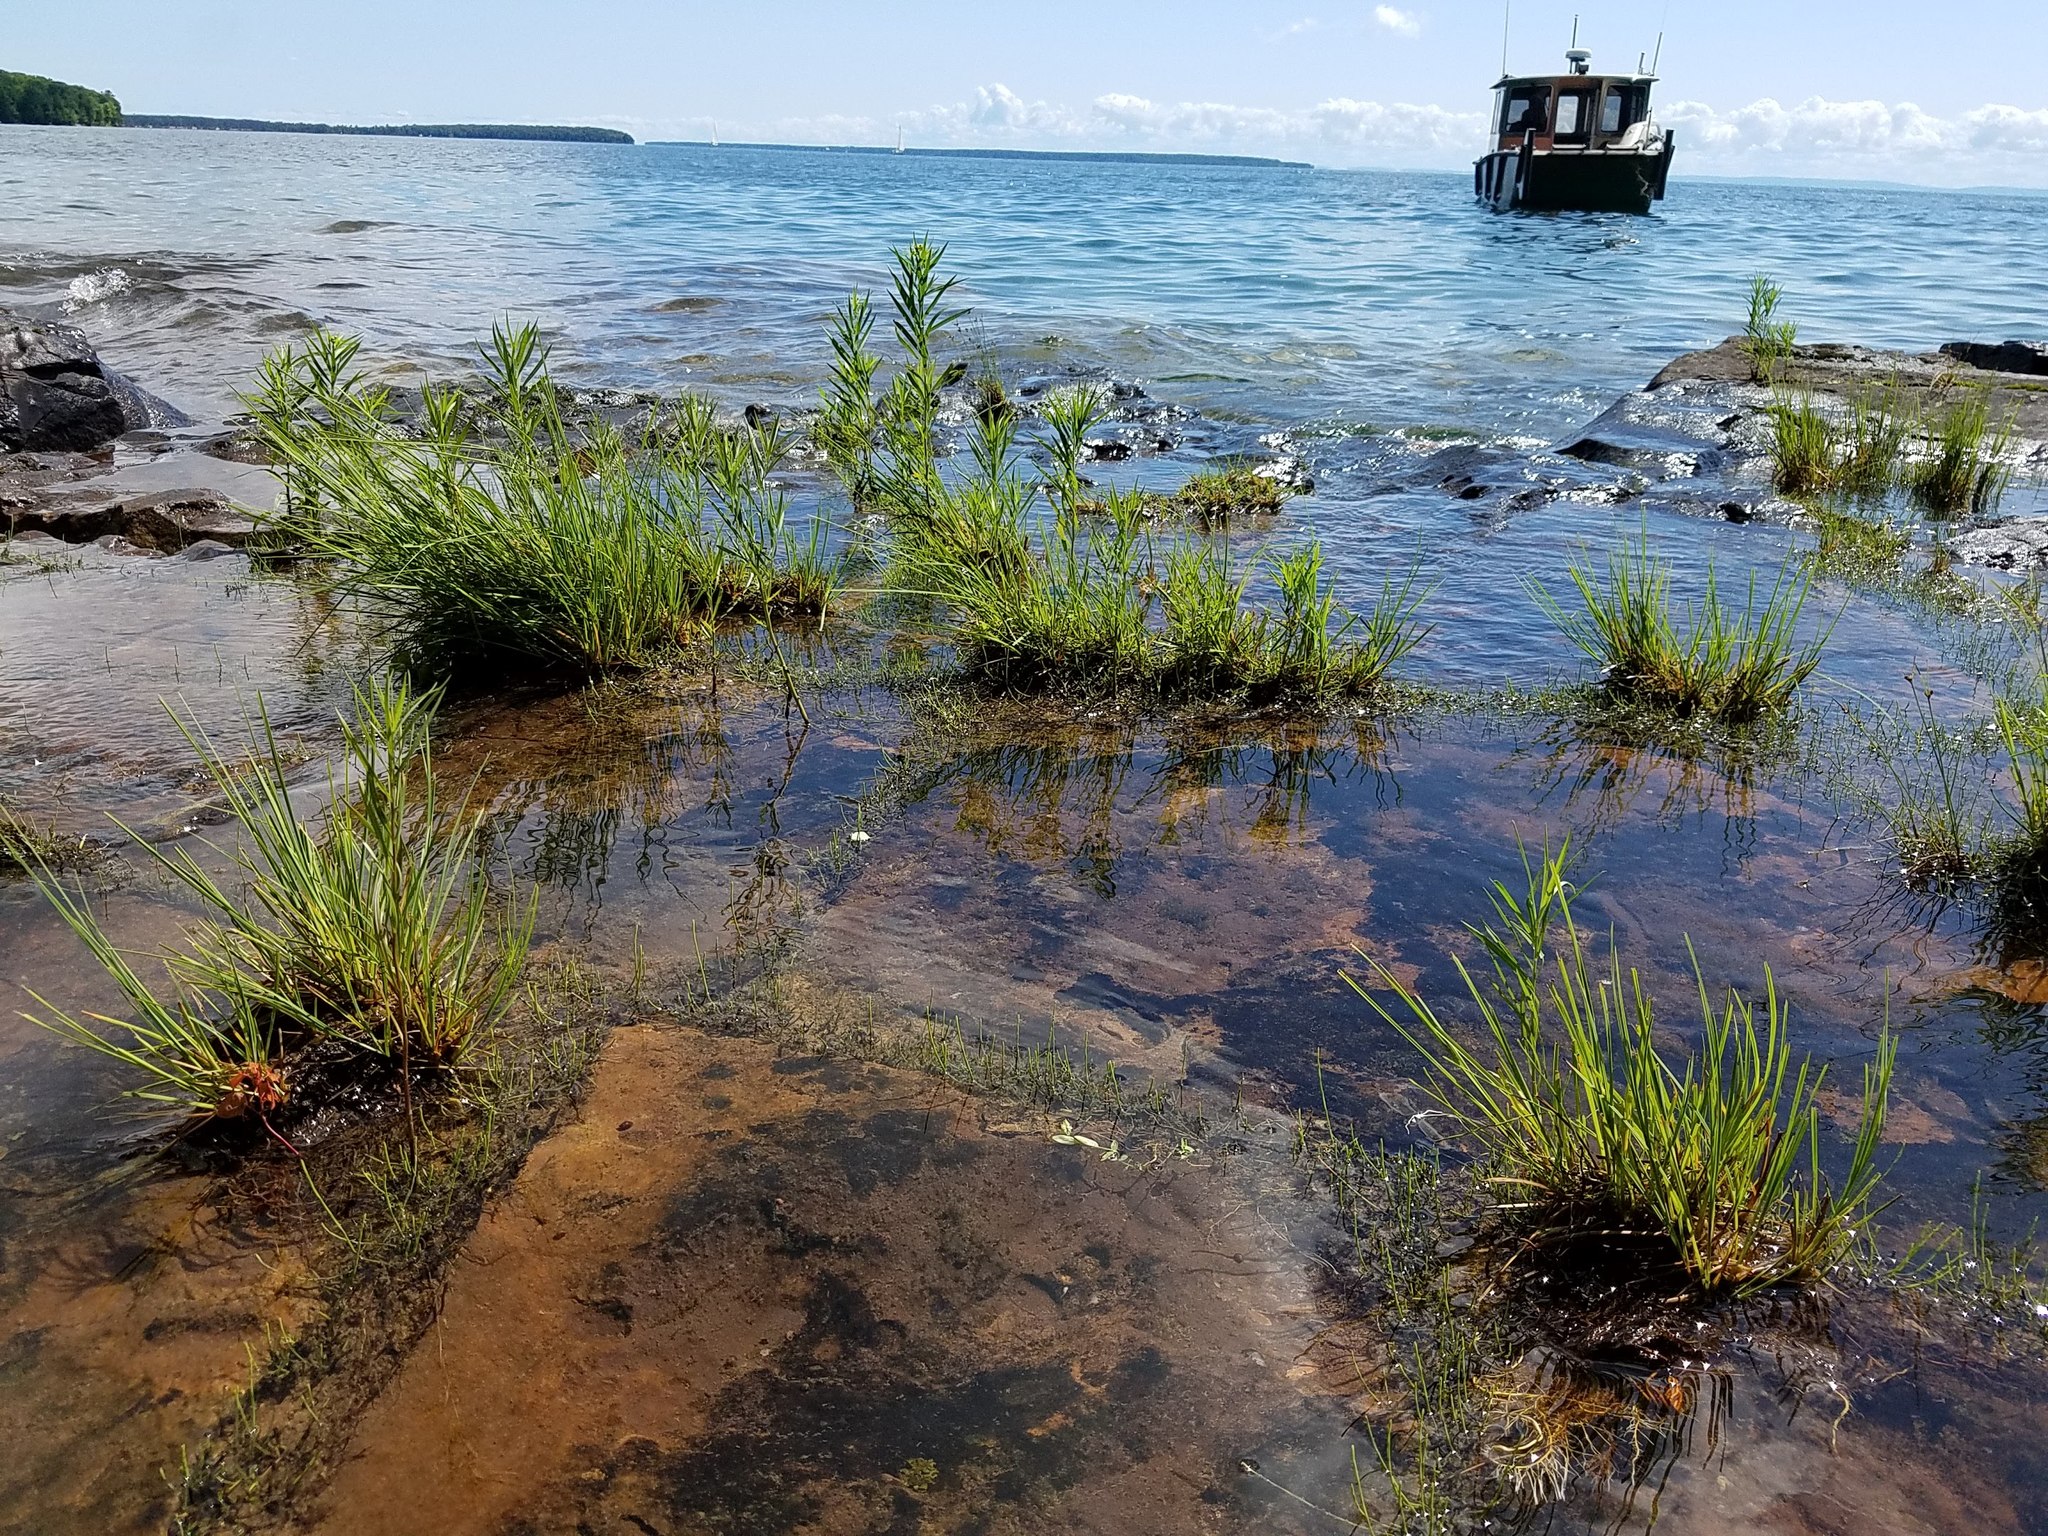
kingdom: Plantae
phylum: Tracheophyta
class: Liliopsida
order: Poales
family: Cyperaceae
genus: Carex
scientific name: Carex lenticularis
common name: Lakeshore sedge
